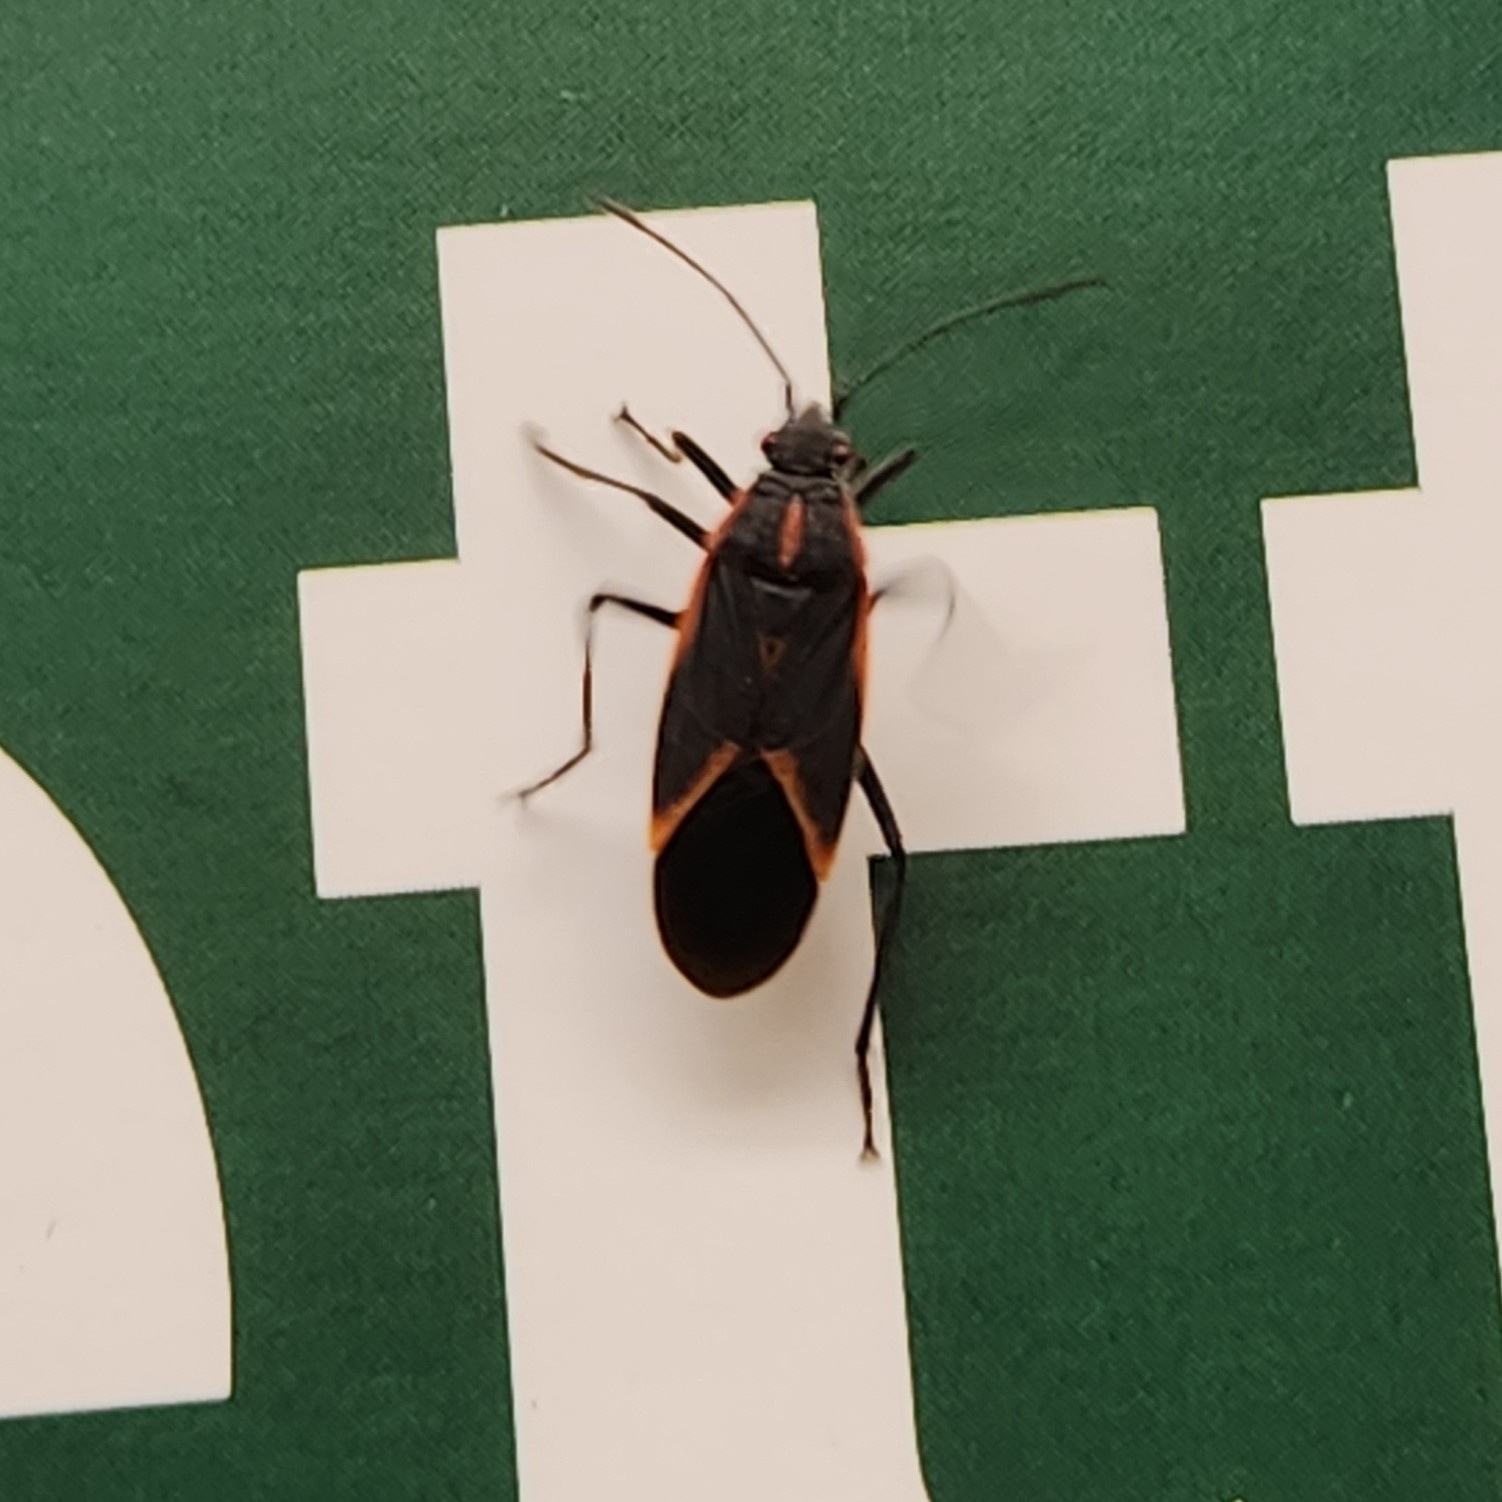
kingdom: Animalia
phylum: Arthropoda
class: Insecta
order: Hemiptera
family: Rhopalidae
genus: Boisea
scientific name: Boisea trivittata
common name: Boxelder bug
